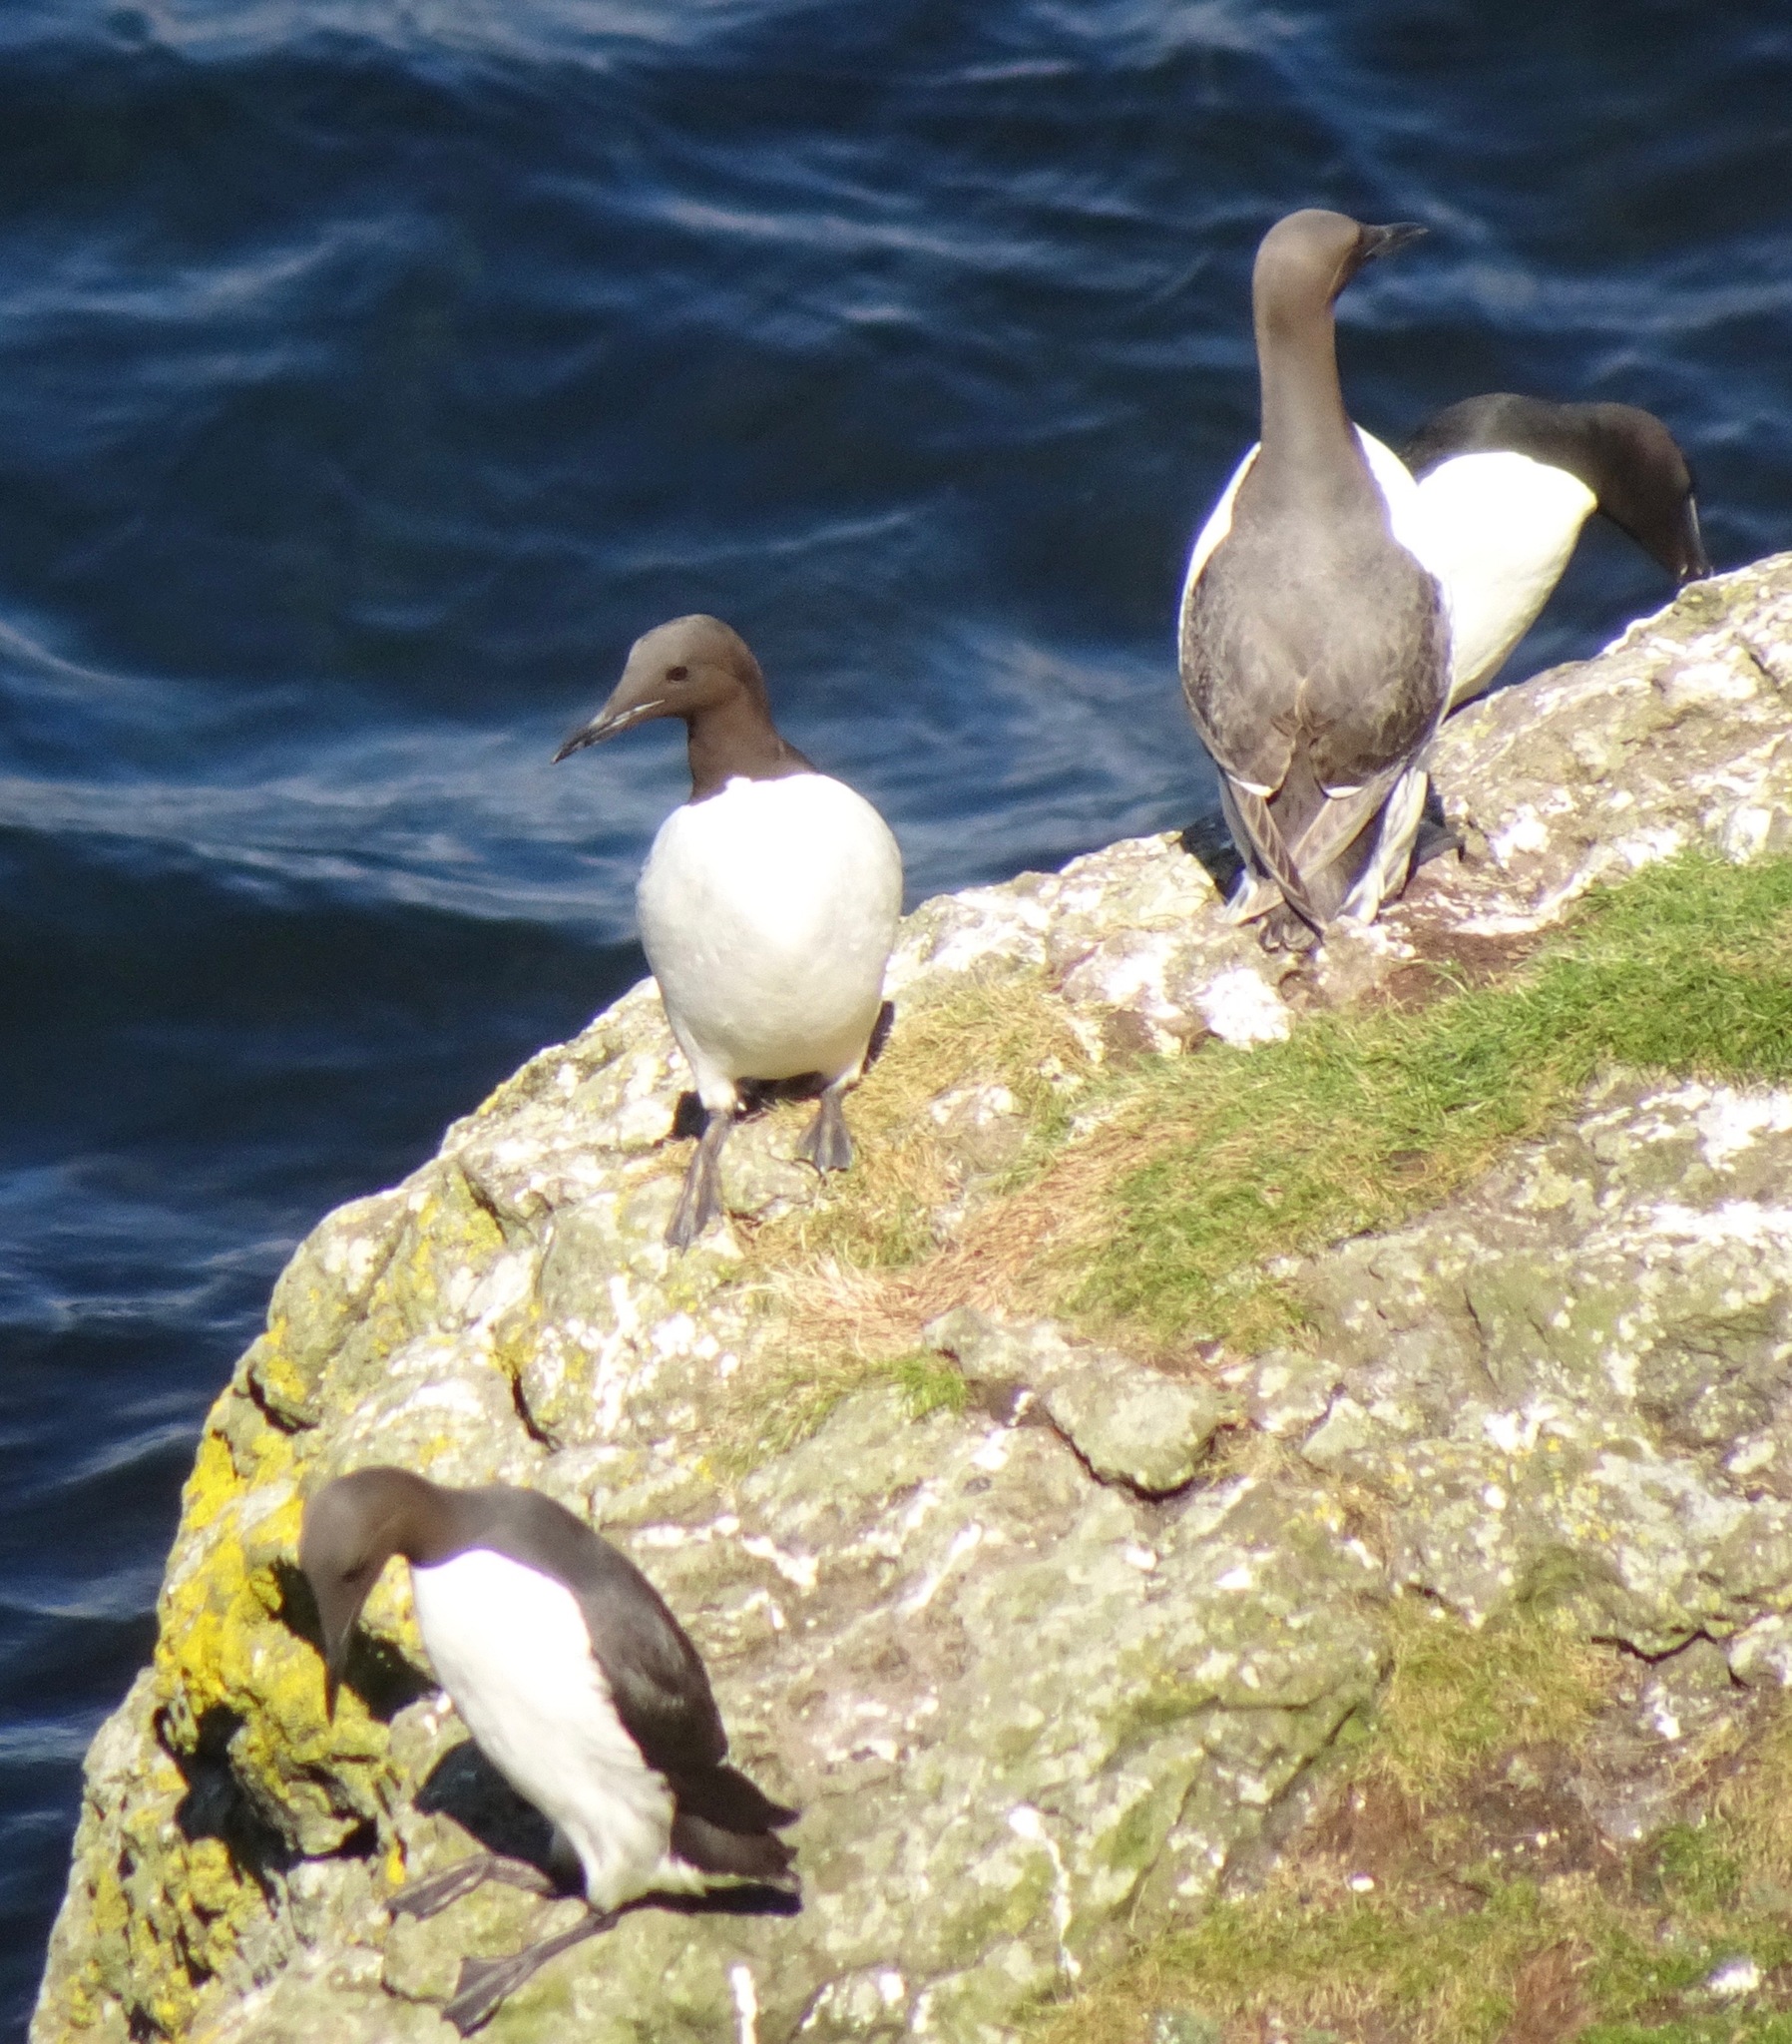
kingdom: Animalia
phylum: Chordata
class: Aves
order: Charadriiformes
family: Alcidae
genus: Uria
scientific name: Uria aalge
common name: Common murre
